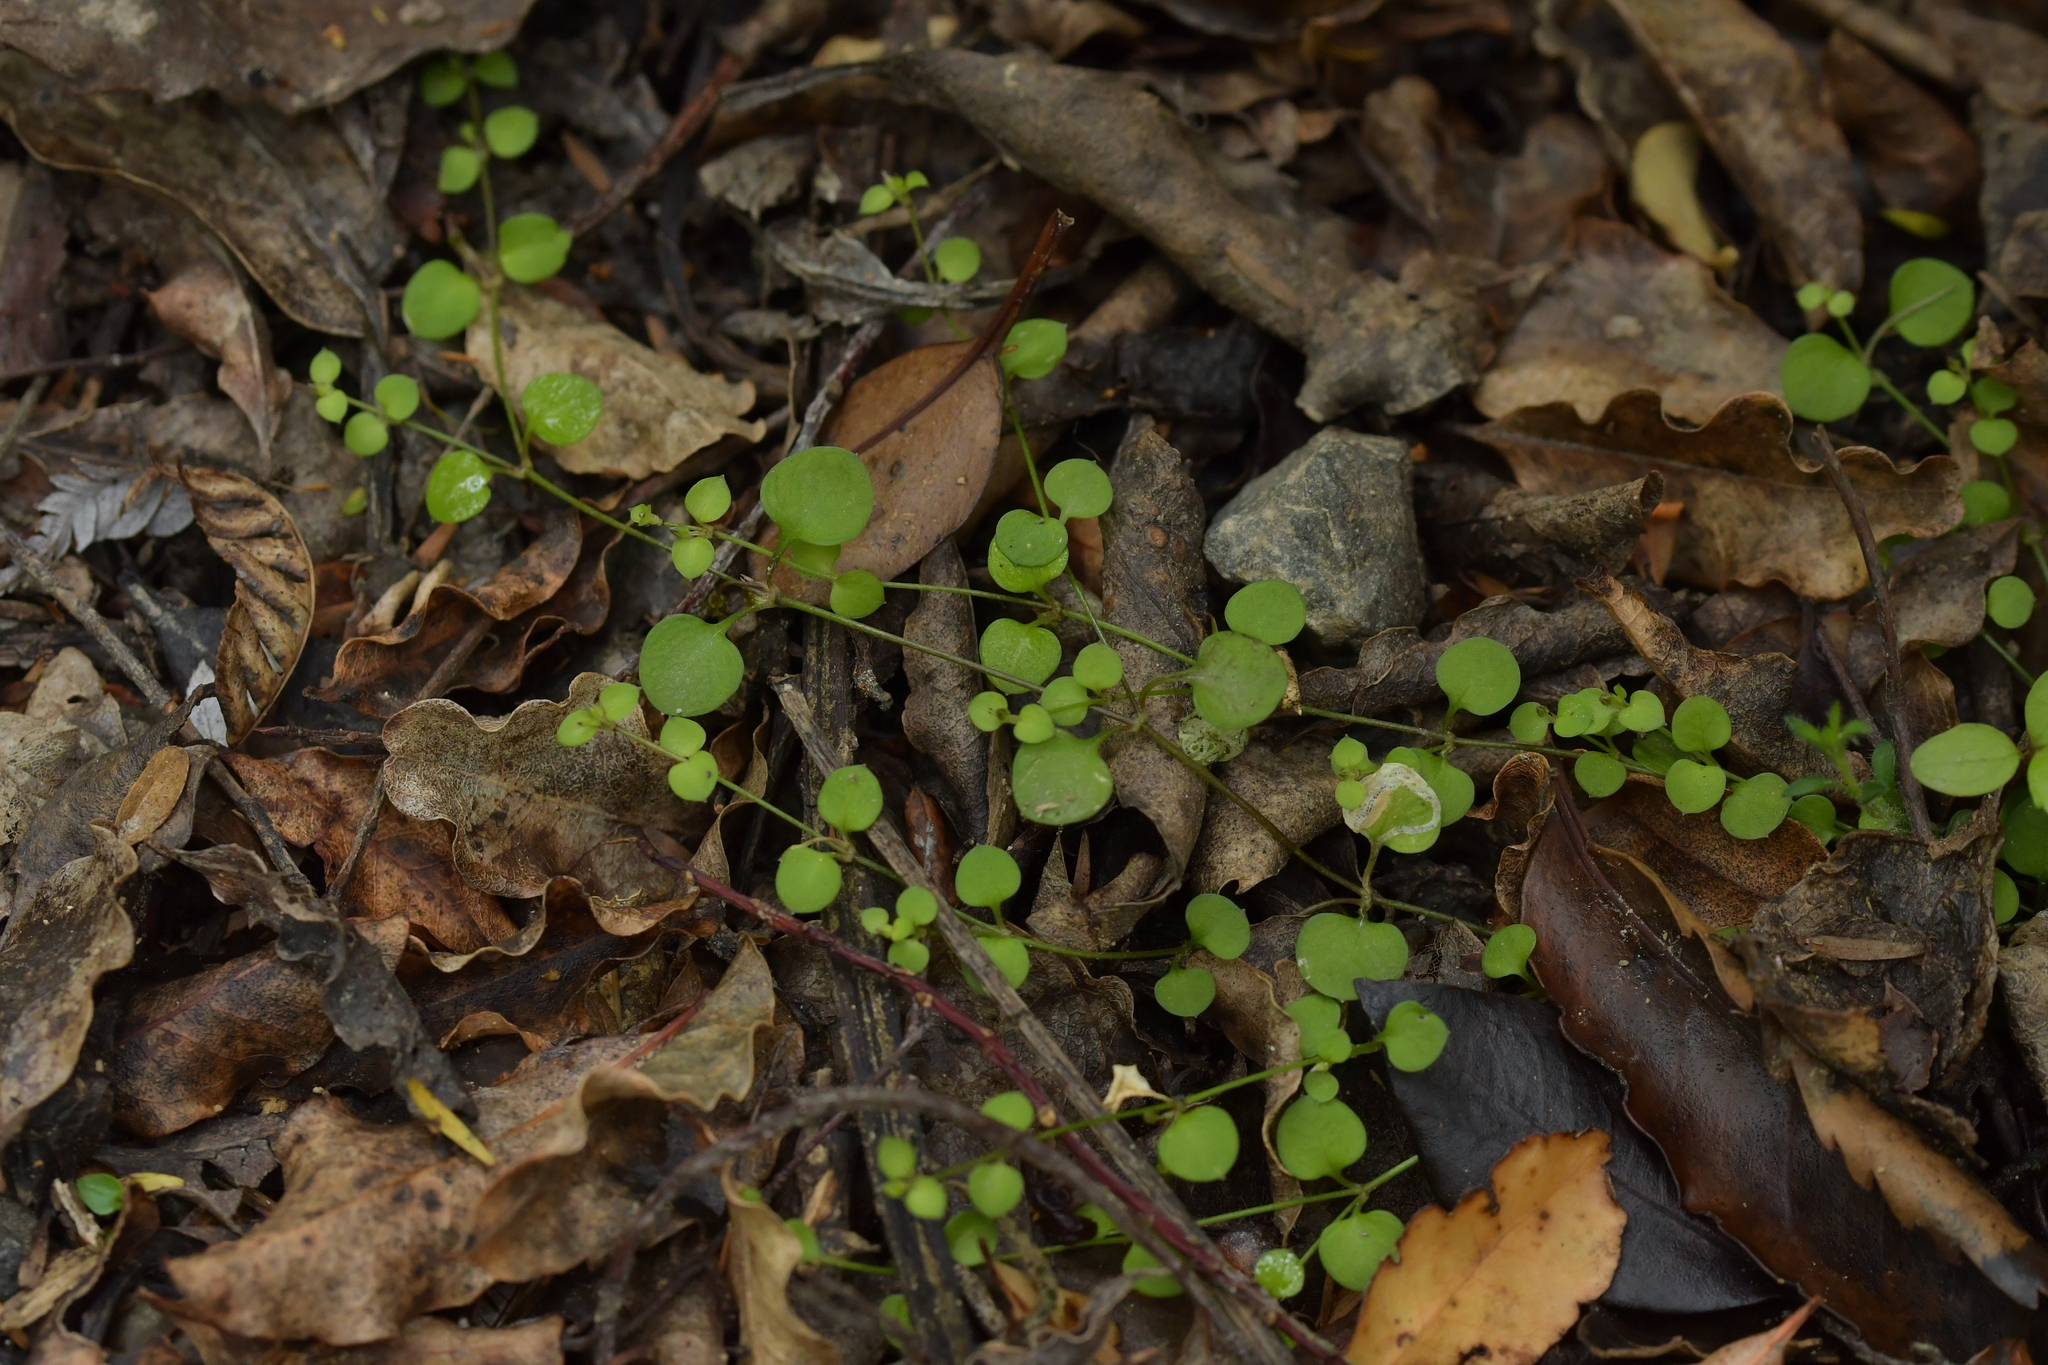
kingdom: Plantae
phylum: Tracheophyta
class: Magnoliopsida
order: Caryophyllales
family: Caryophyllaceae
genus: Stellaria
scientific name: Stellaria parviflora
